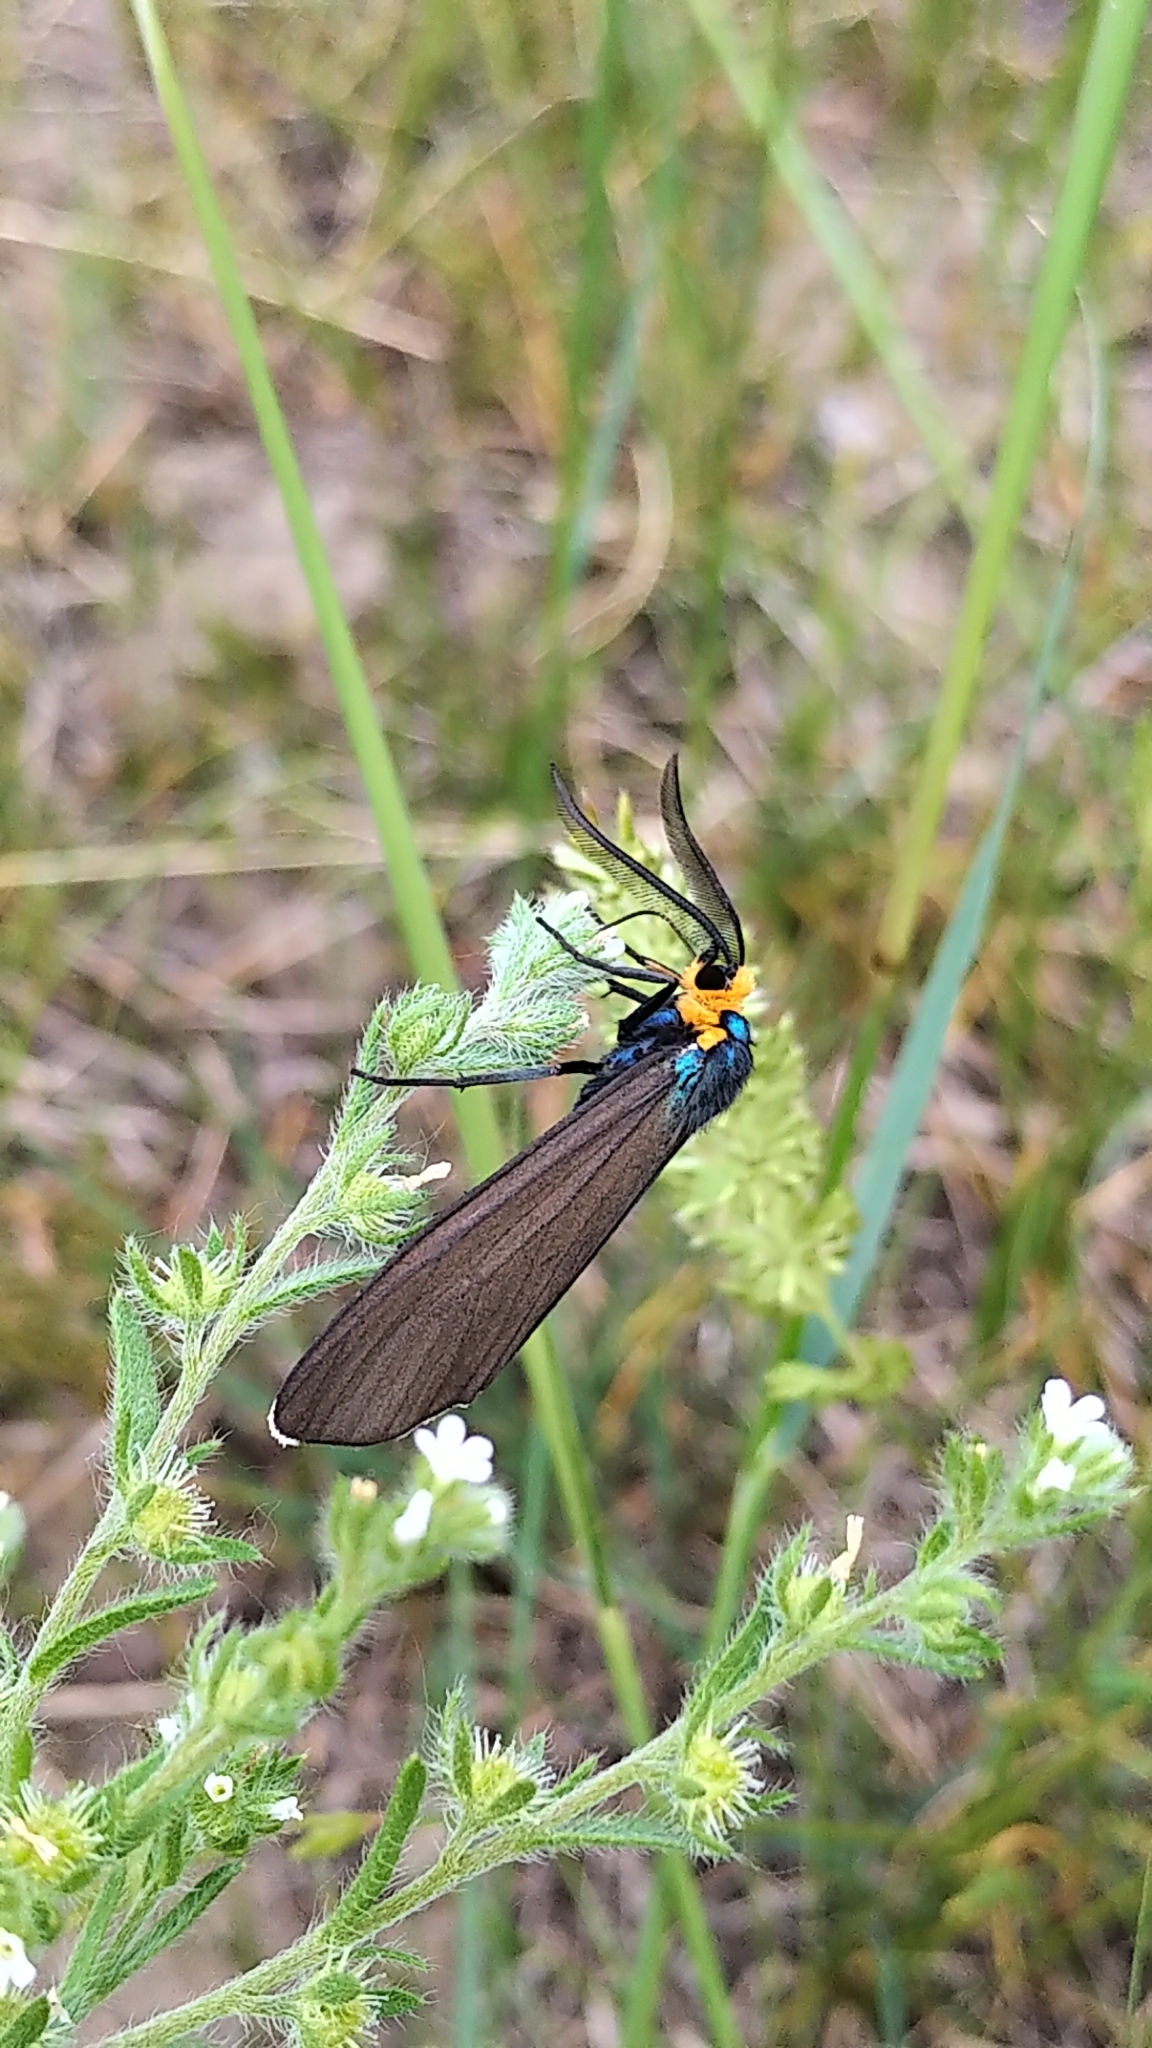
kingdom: Animalia
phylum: Arthropoda
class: Insecta
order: Lepidoptera
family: Erebidae
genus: Ctenucha
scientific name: Ctenucha virginica
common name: Virginia ctenucha moth
